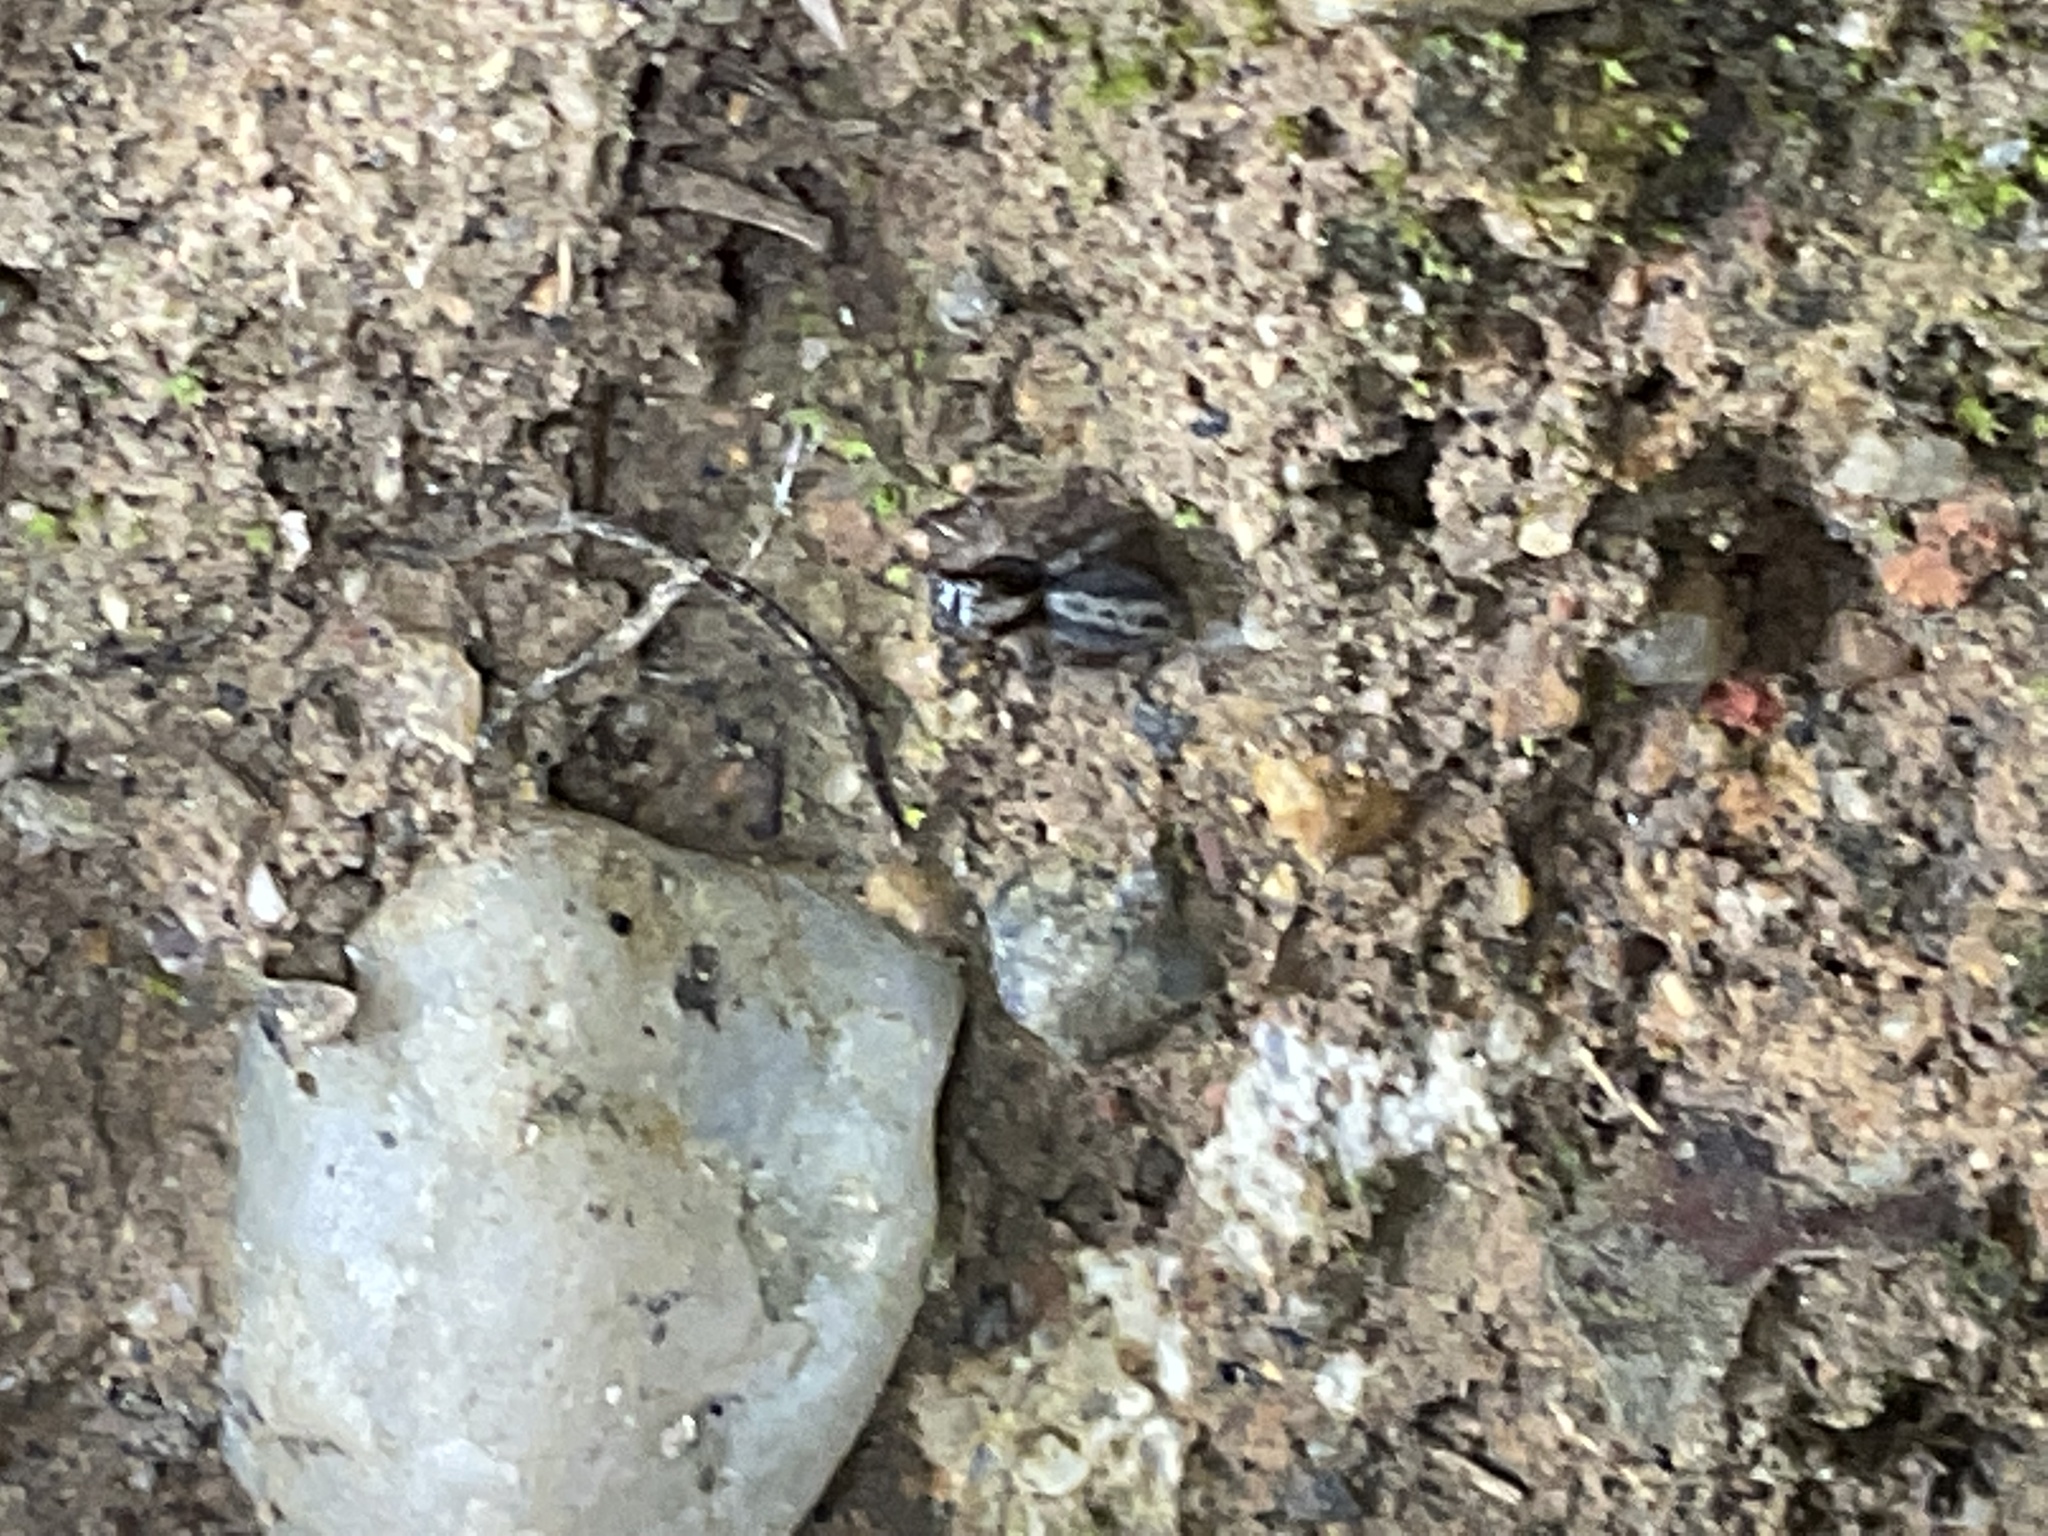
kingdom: Animalia
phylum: Arthropoda
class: Arachnida
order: Araneae
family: Salticidae
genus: Saitis
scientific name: Saitis tauricus
